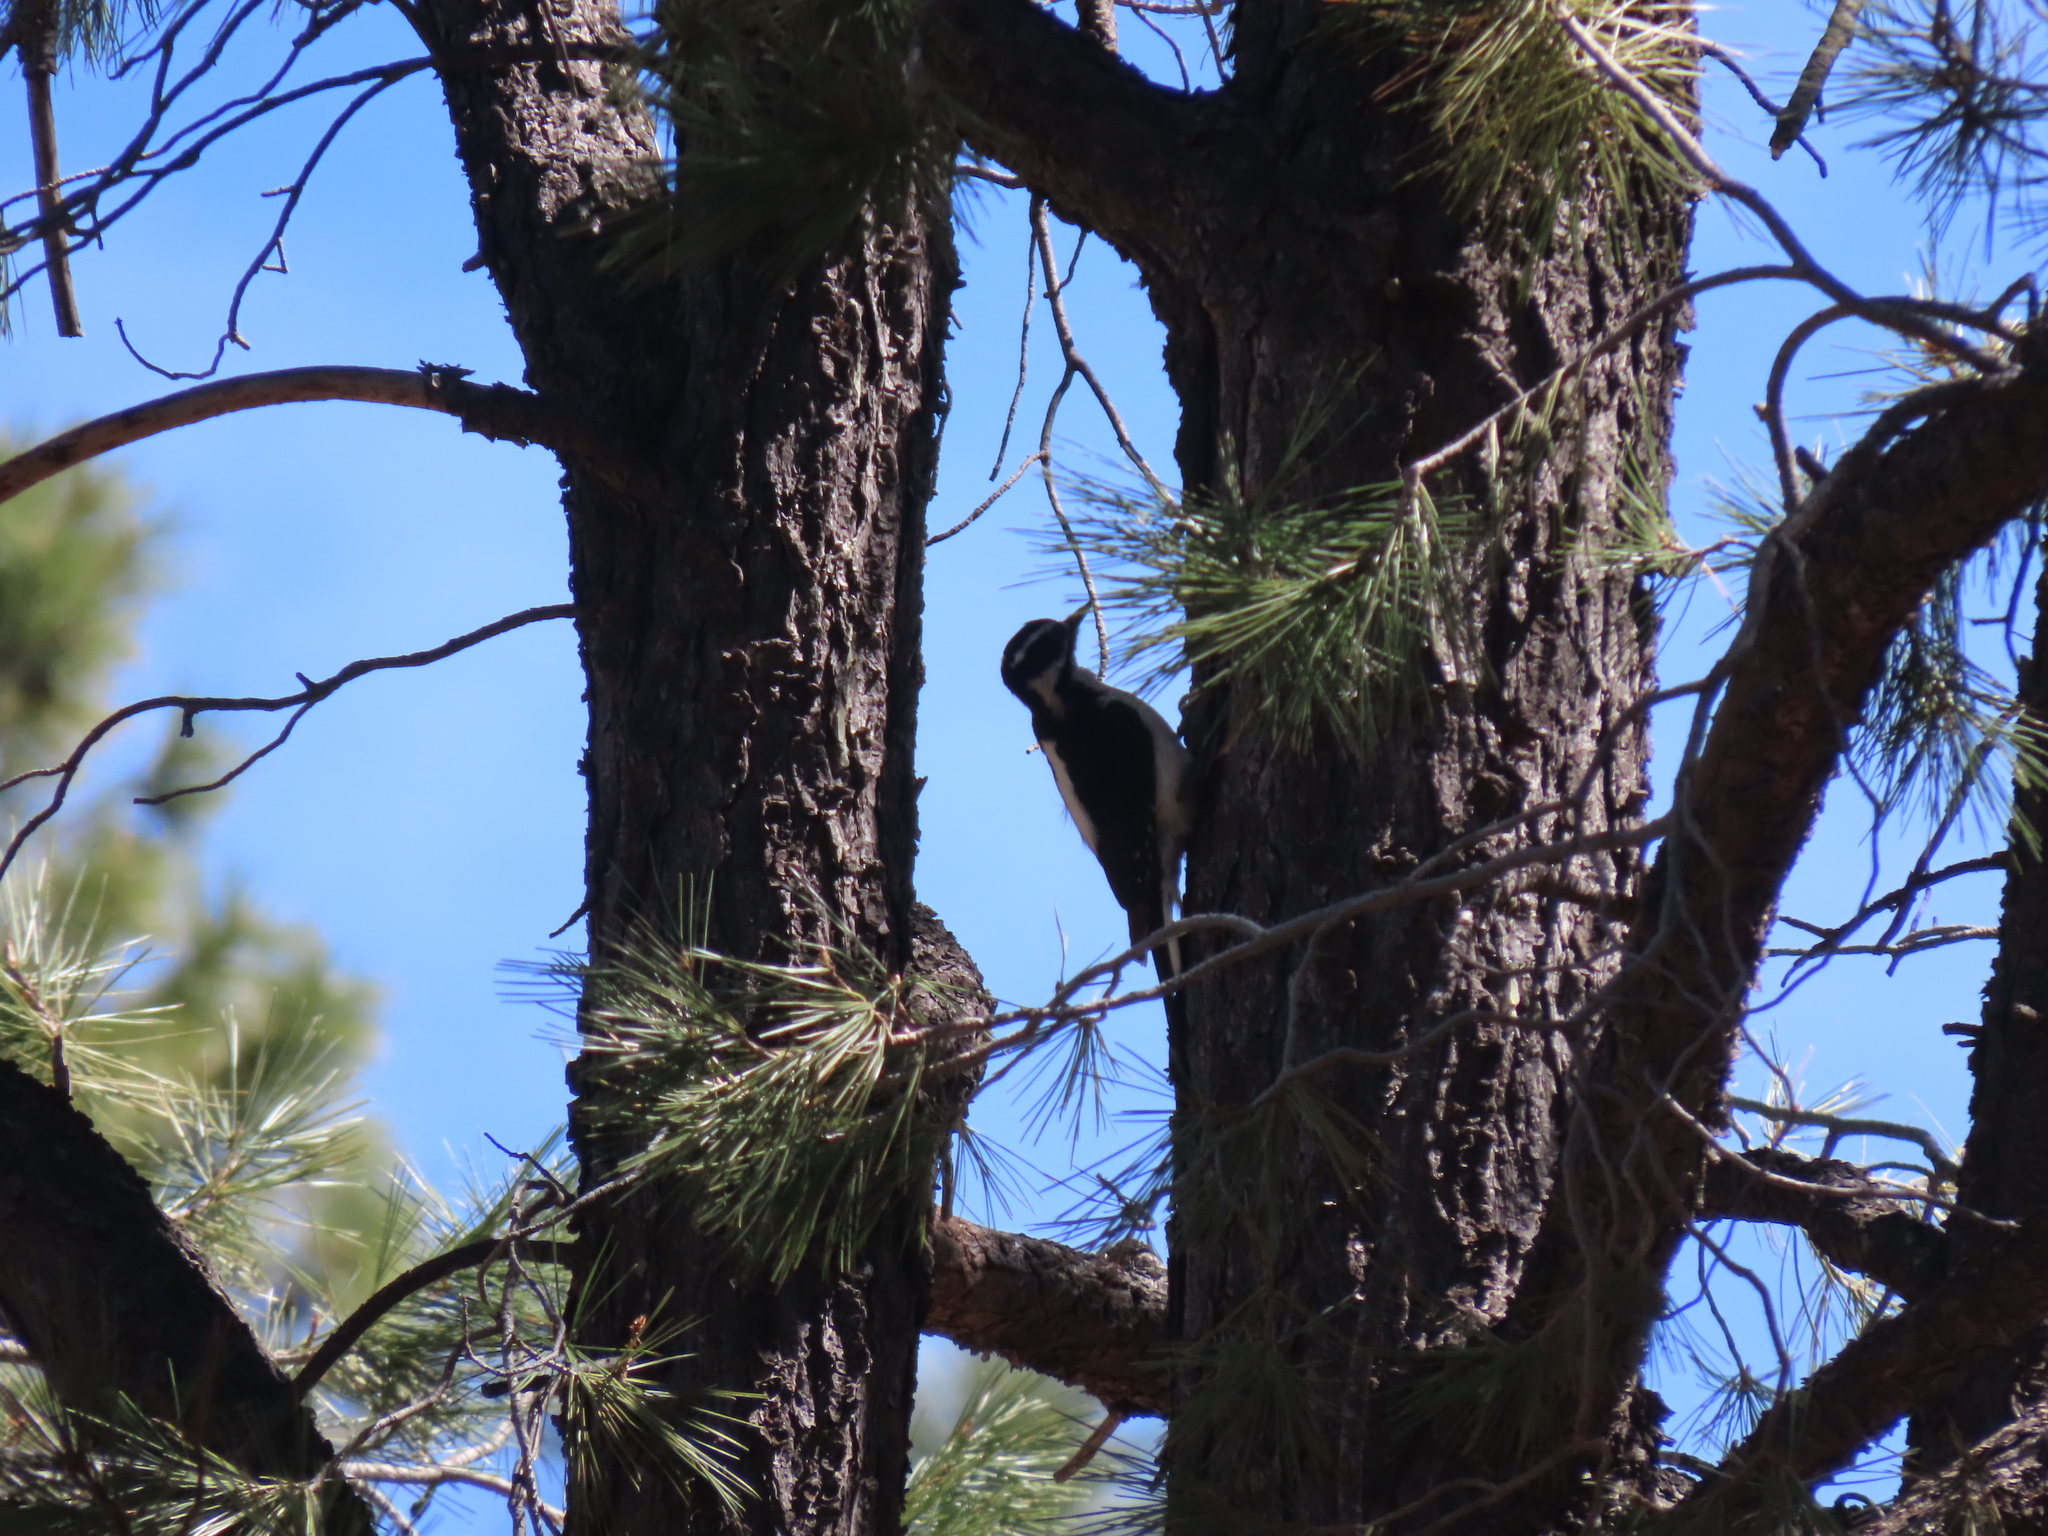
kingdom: Animalia
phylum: Chordata
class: Aves
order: Piciformes
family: Picidae
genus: Leuconotopicus
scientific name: Leuconotopicus villosus
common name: Hairy woodpecker
